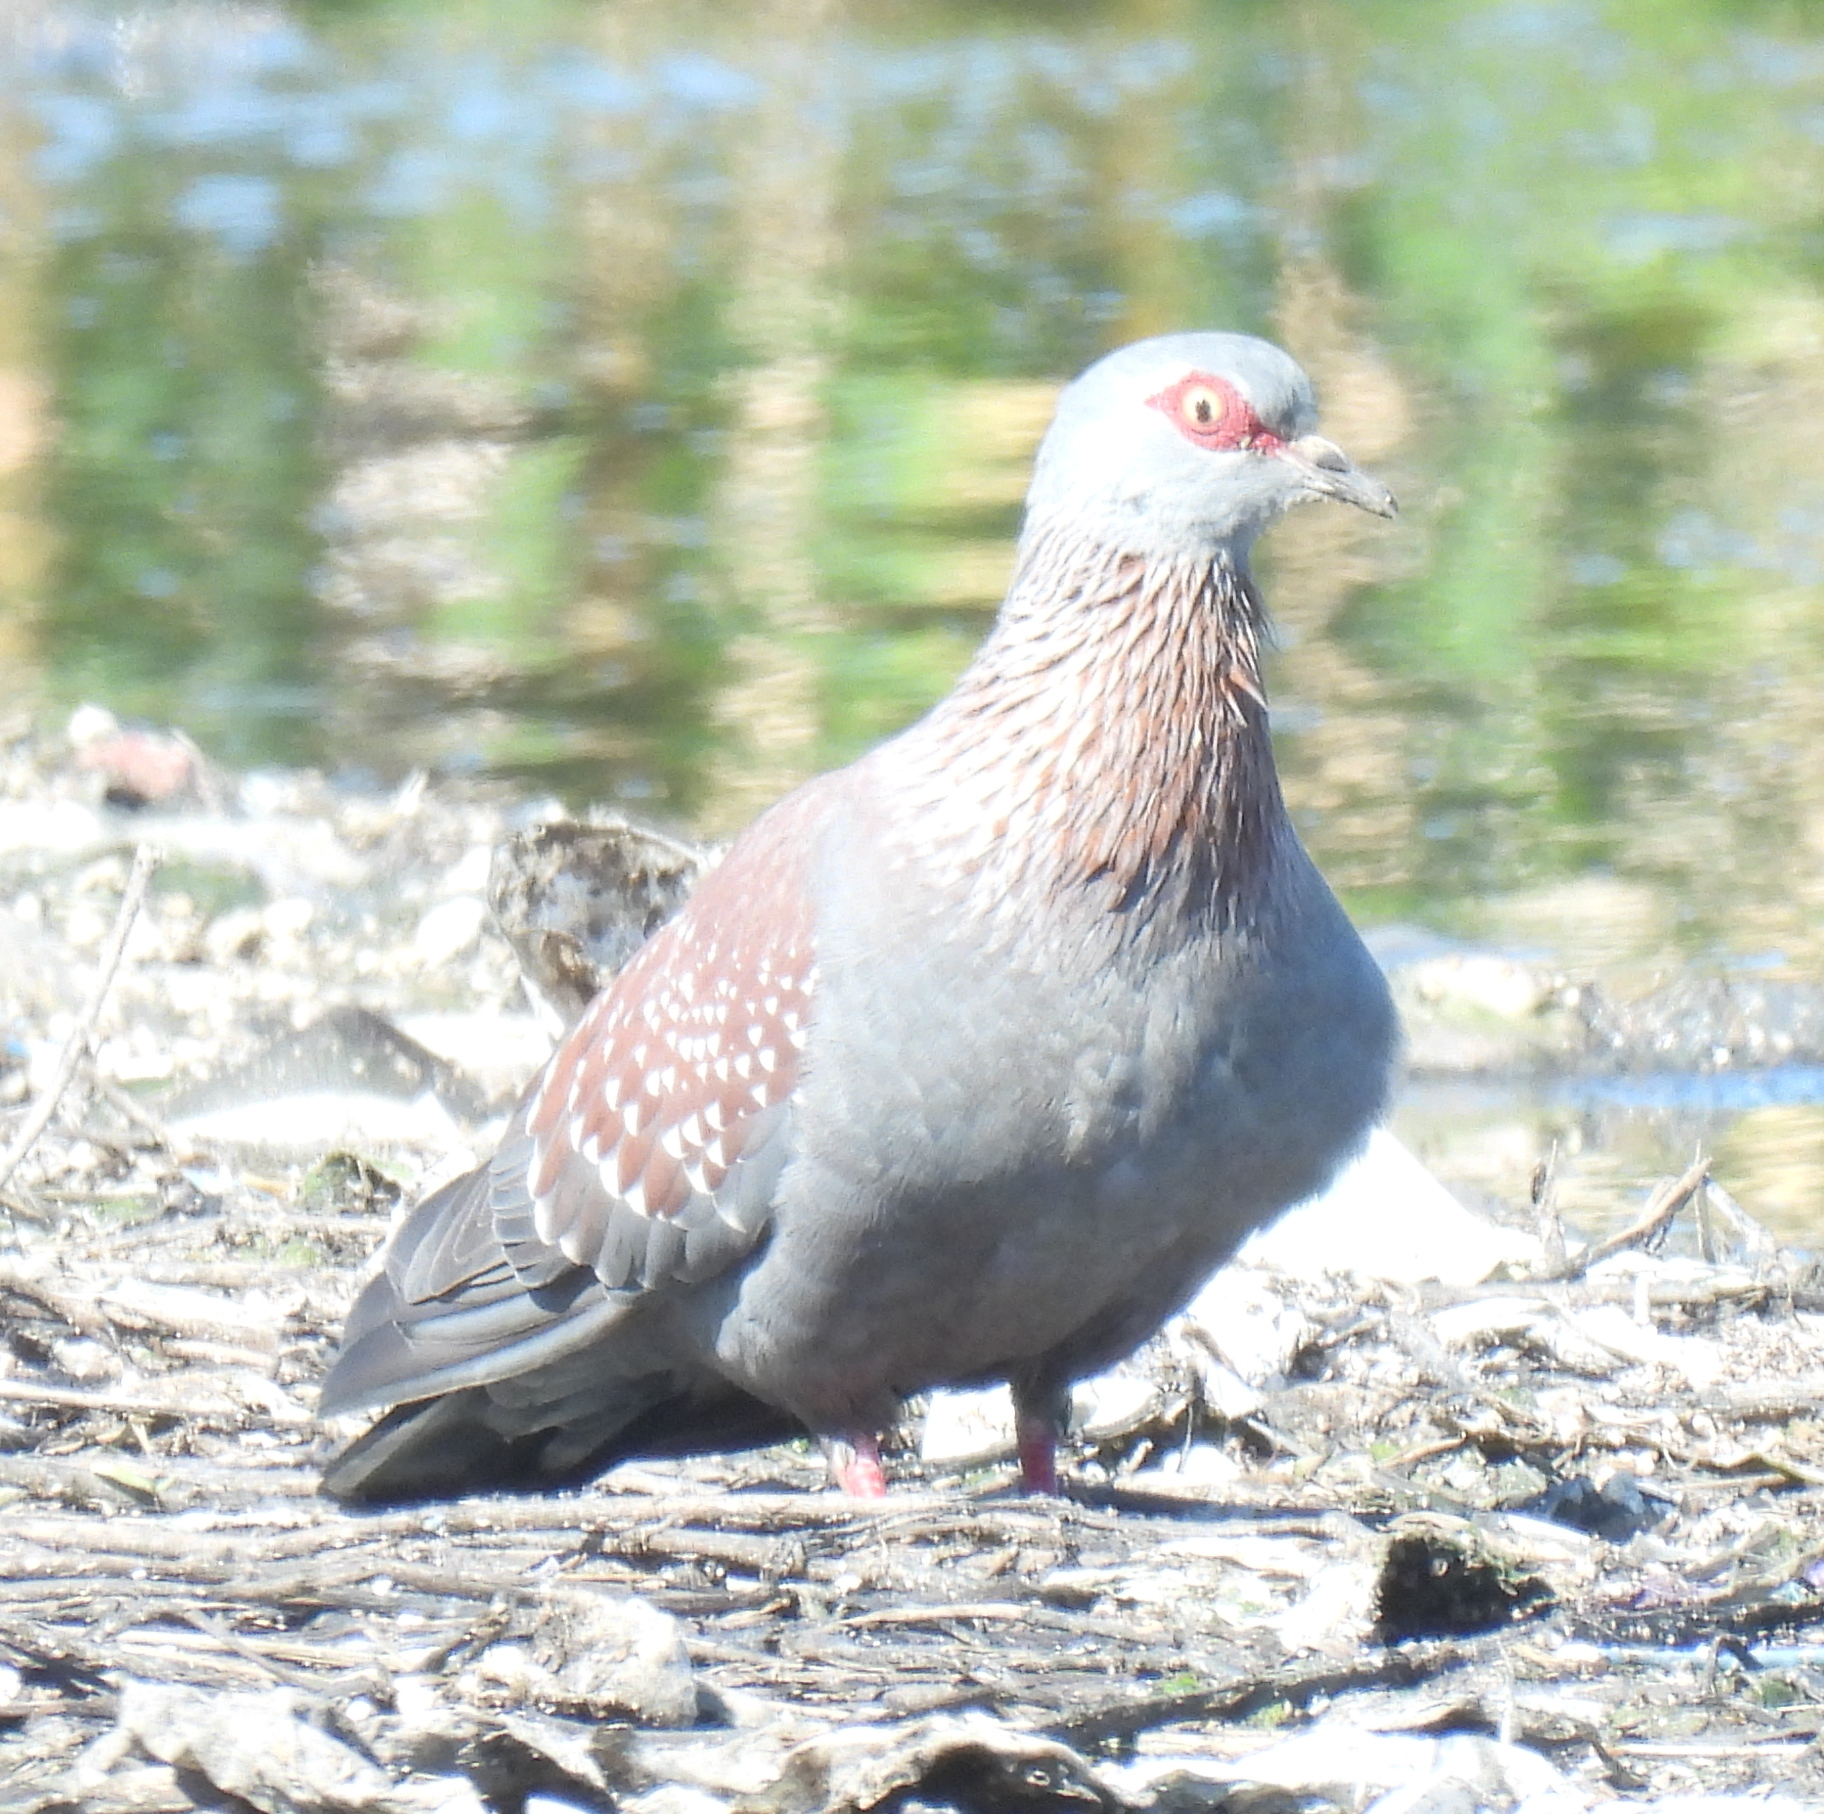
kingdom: Animalia
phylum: Chordata
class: Aves
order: Columbiformes
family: Columbidae
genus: Columba
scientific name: Columba guinea
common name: Speckled pigeon
